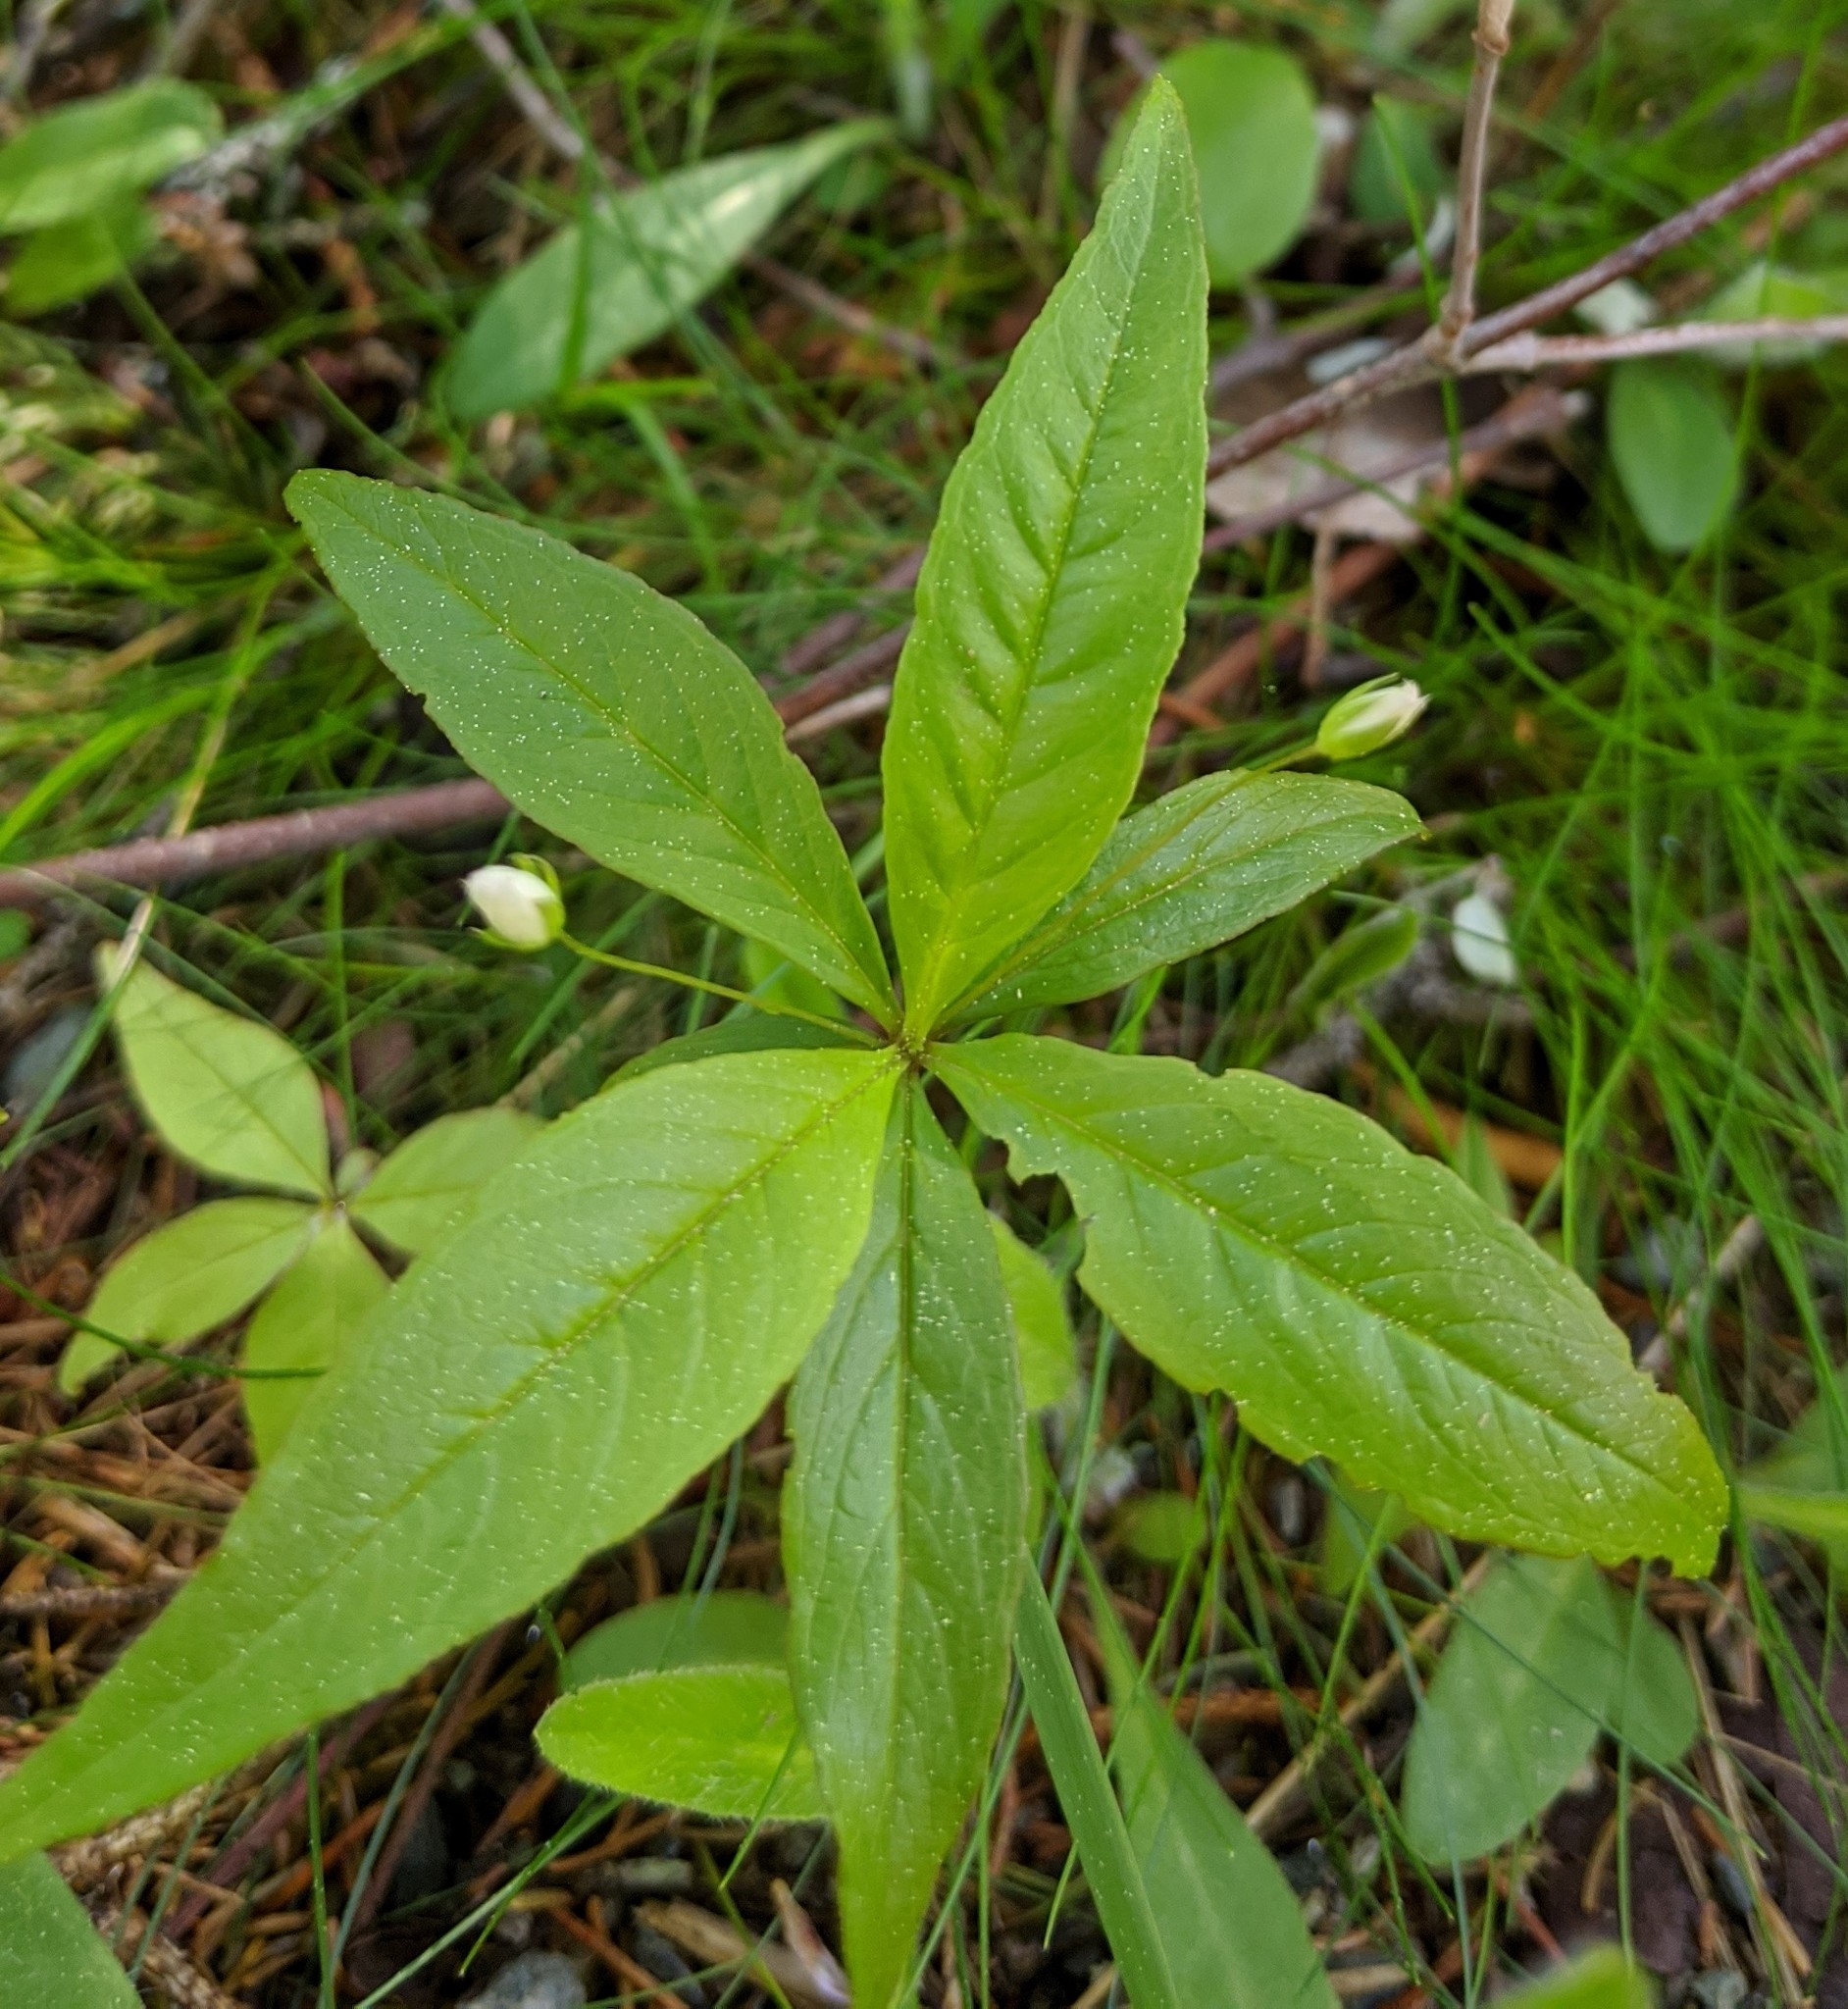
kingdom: Plantae
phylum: Tracheophyta
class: Magnoliopsida
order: Ericales
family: Primulaceae
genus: Lysimachia
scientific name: Lysimachia borealis
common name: American starflower
